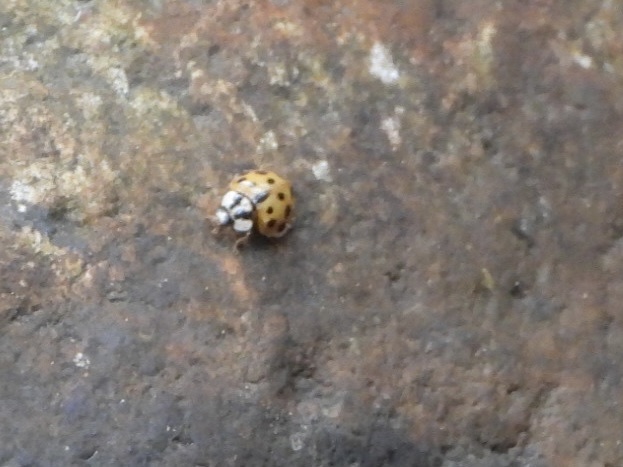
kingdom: Animalia
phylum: Arthropoda
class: Insecta
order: Coleoptera
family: Coccinellidae
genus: Harmonia
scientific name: Harmonia axyridis
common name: Harlequin ladybird
